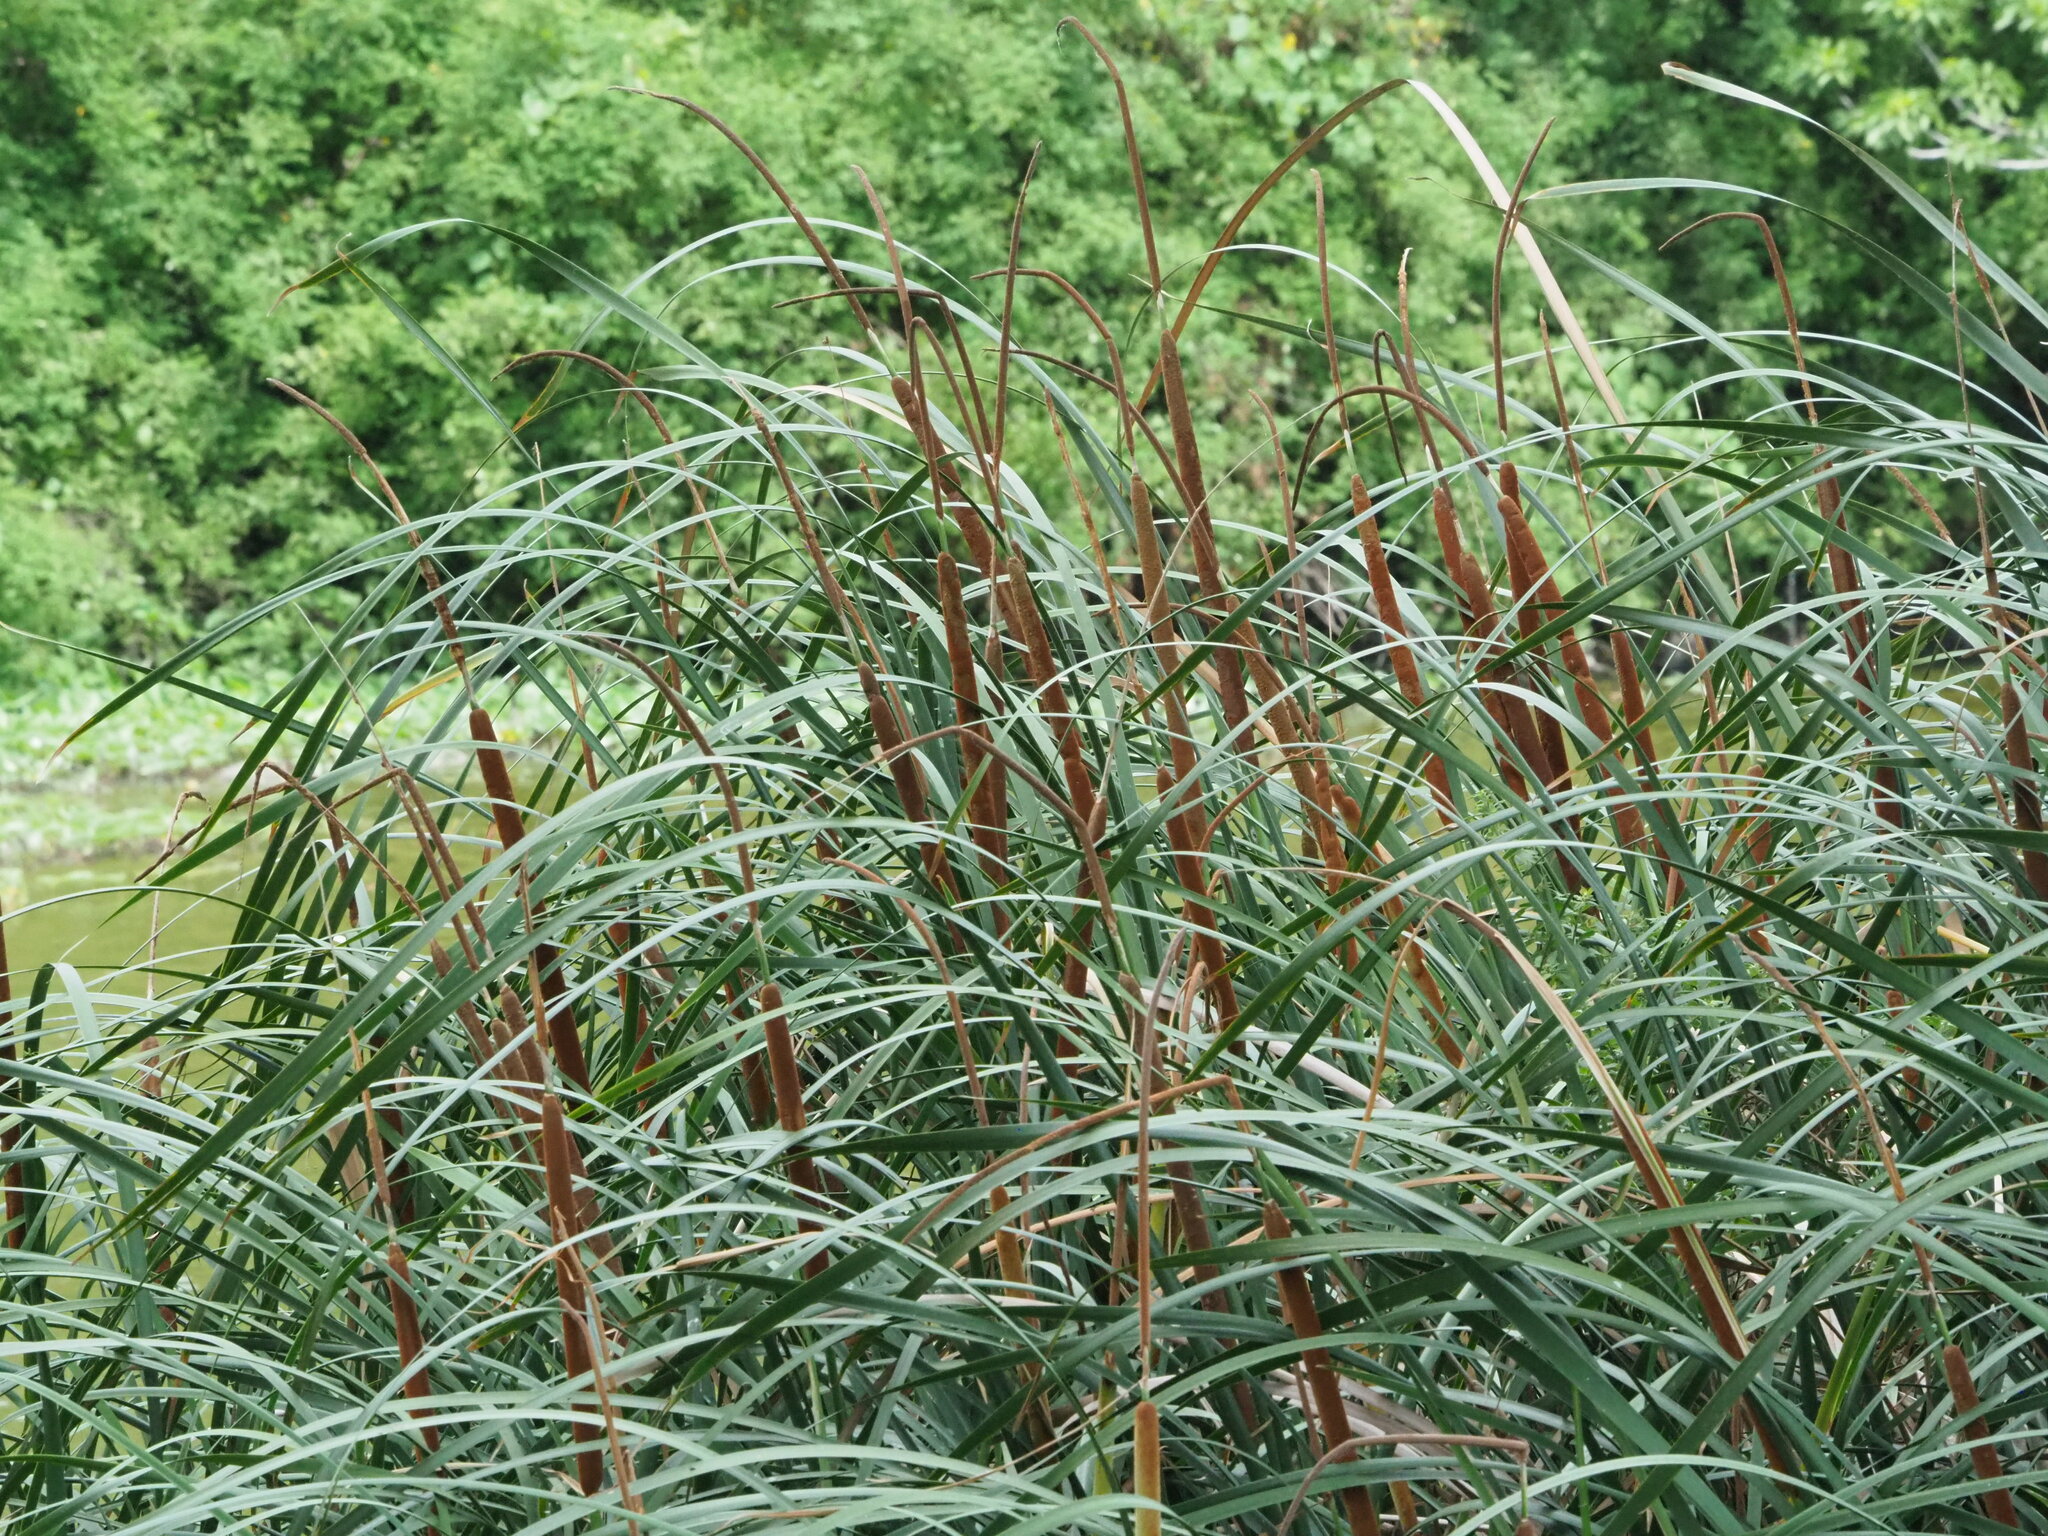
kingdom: Plantae
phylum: Tracheophyta
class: Liliopsida
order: Poales
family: Typhaceae
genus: Typha
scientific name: Typha angustifolia
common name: Lesser bulrush
